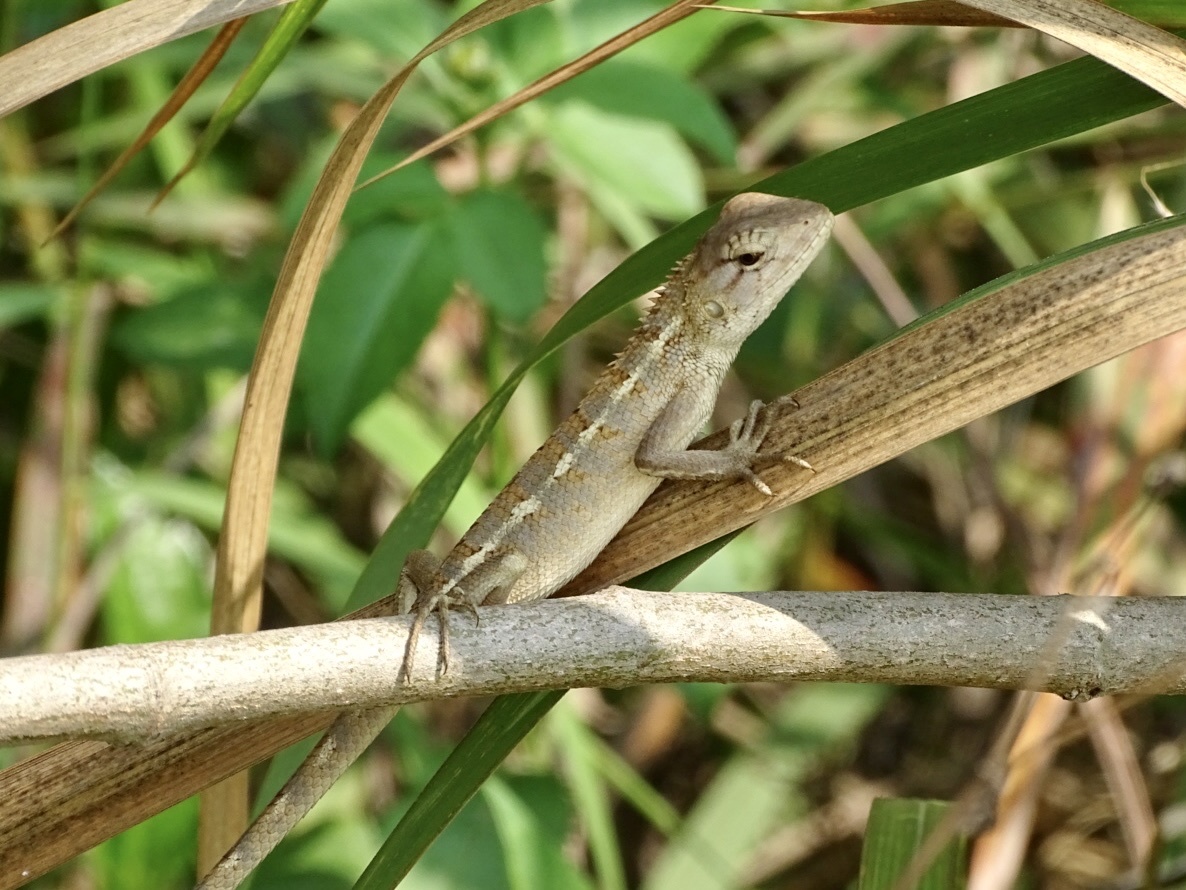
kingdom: Animalia
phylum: Chordata
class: Squamata
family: Agamidae
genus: Calotes
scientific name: Calotes versicolor
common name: Oriental garden lizard
